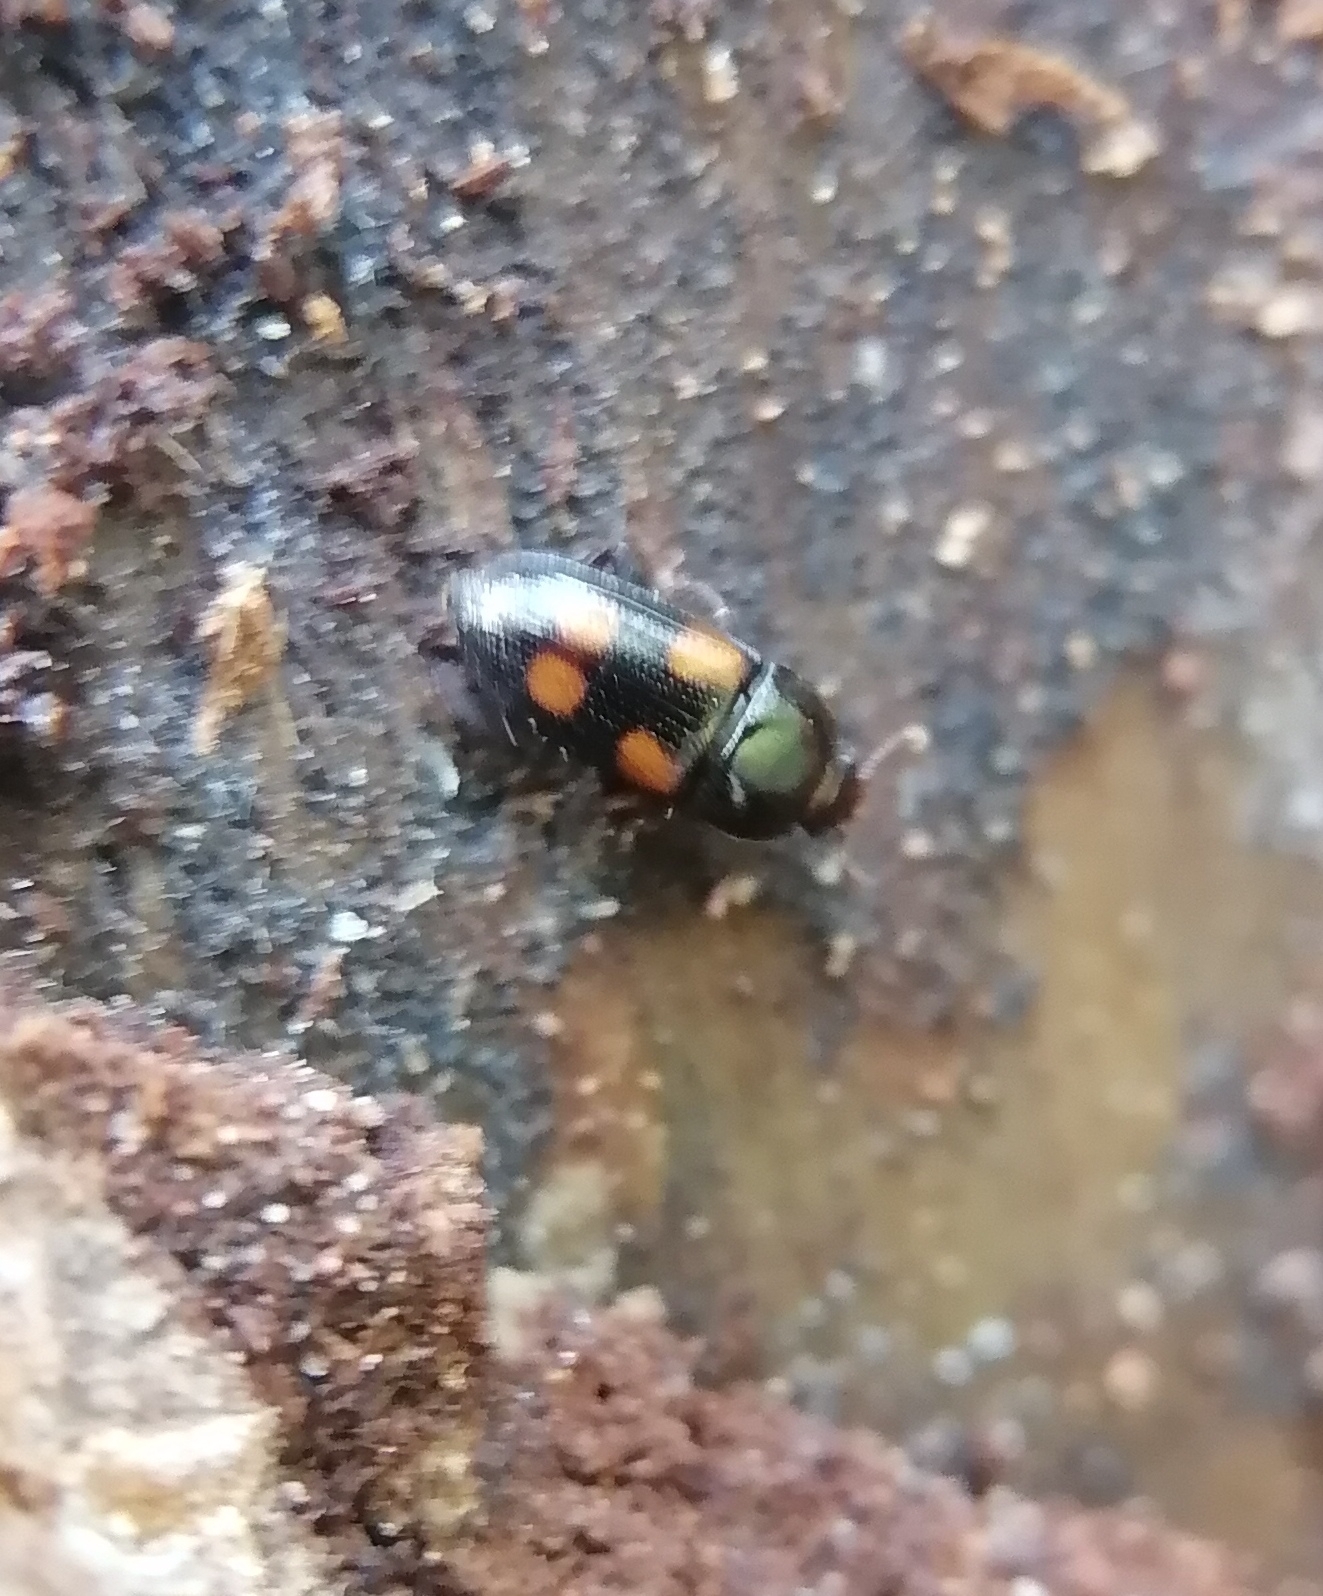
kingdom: Animalia
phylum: Arthropoda
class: Insecta
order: Coleoptera
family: Nitidulidae
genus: Ipidia
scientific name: Ipidia binotata
